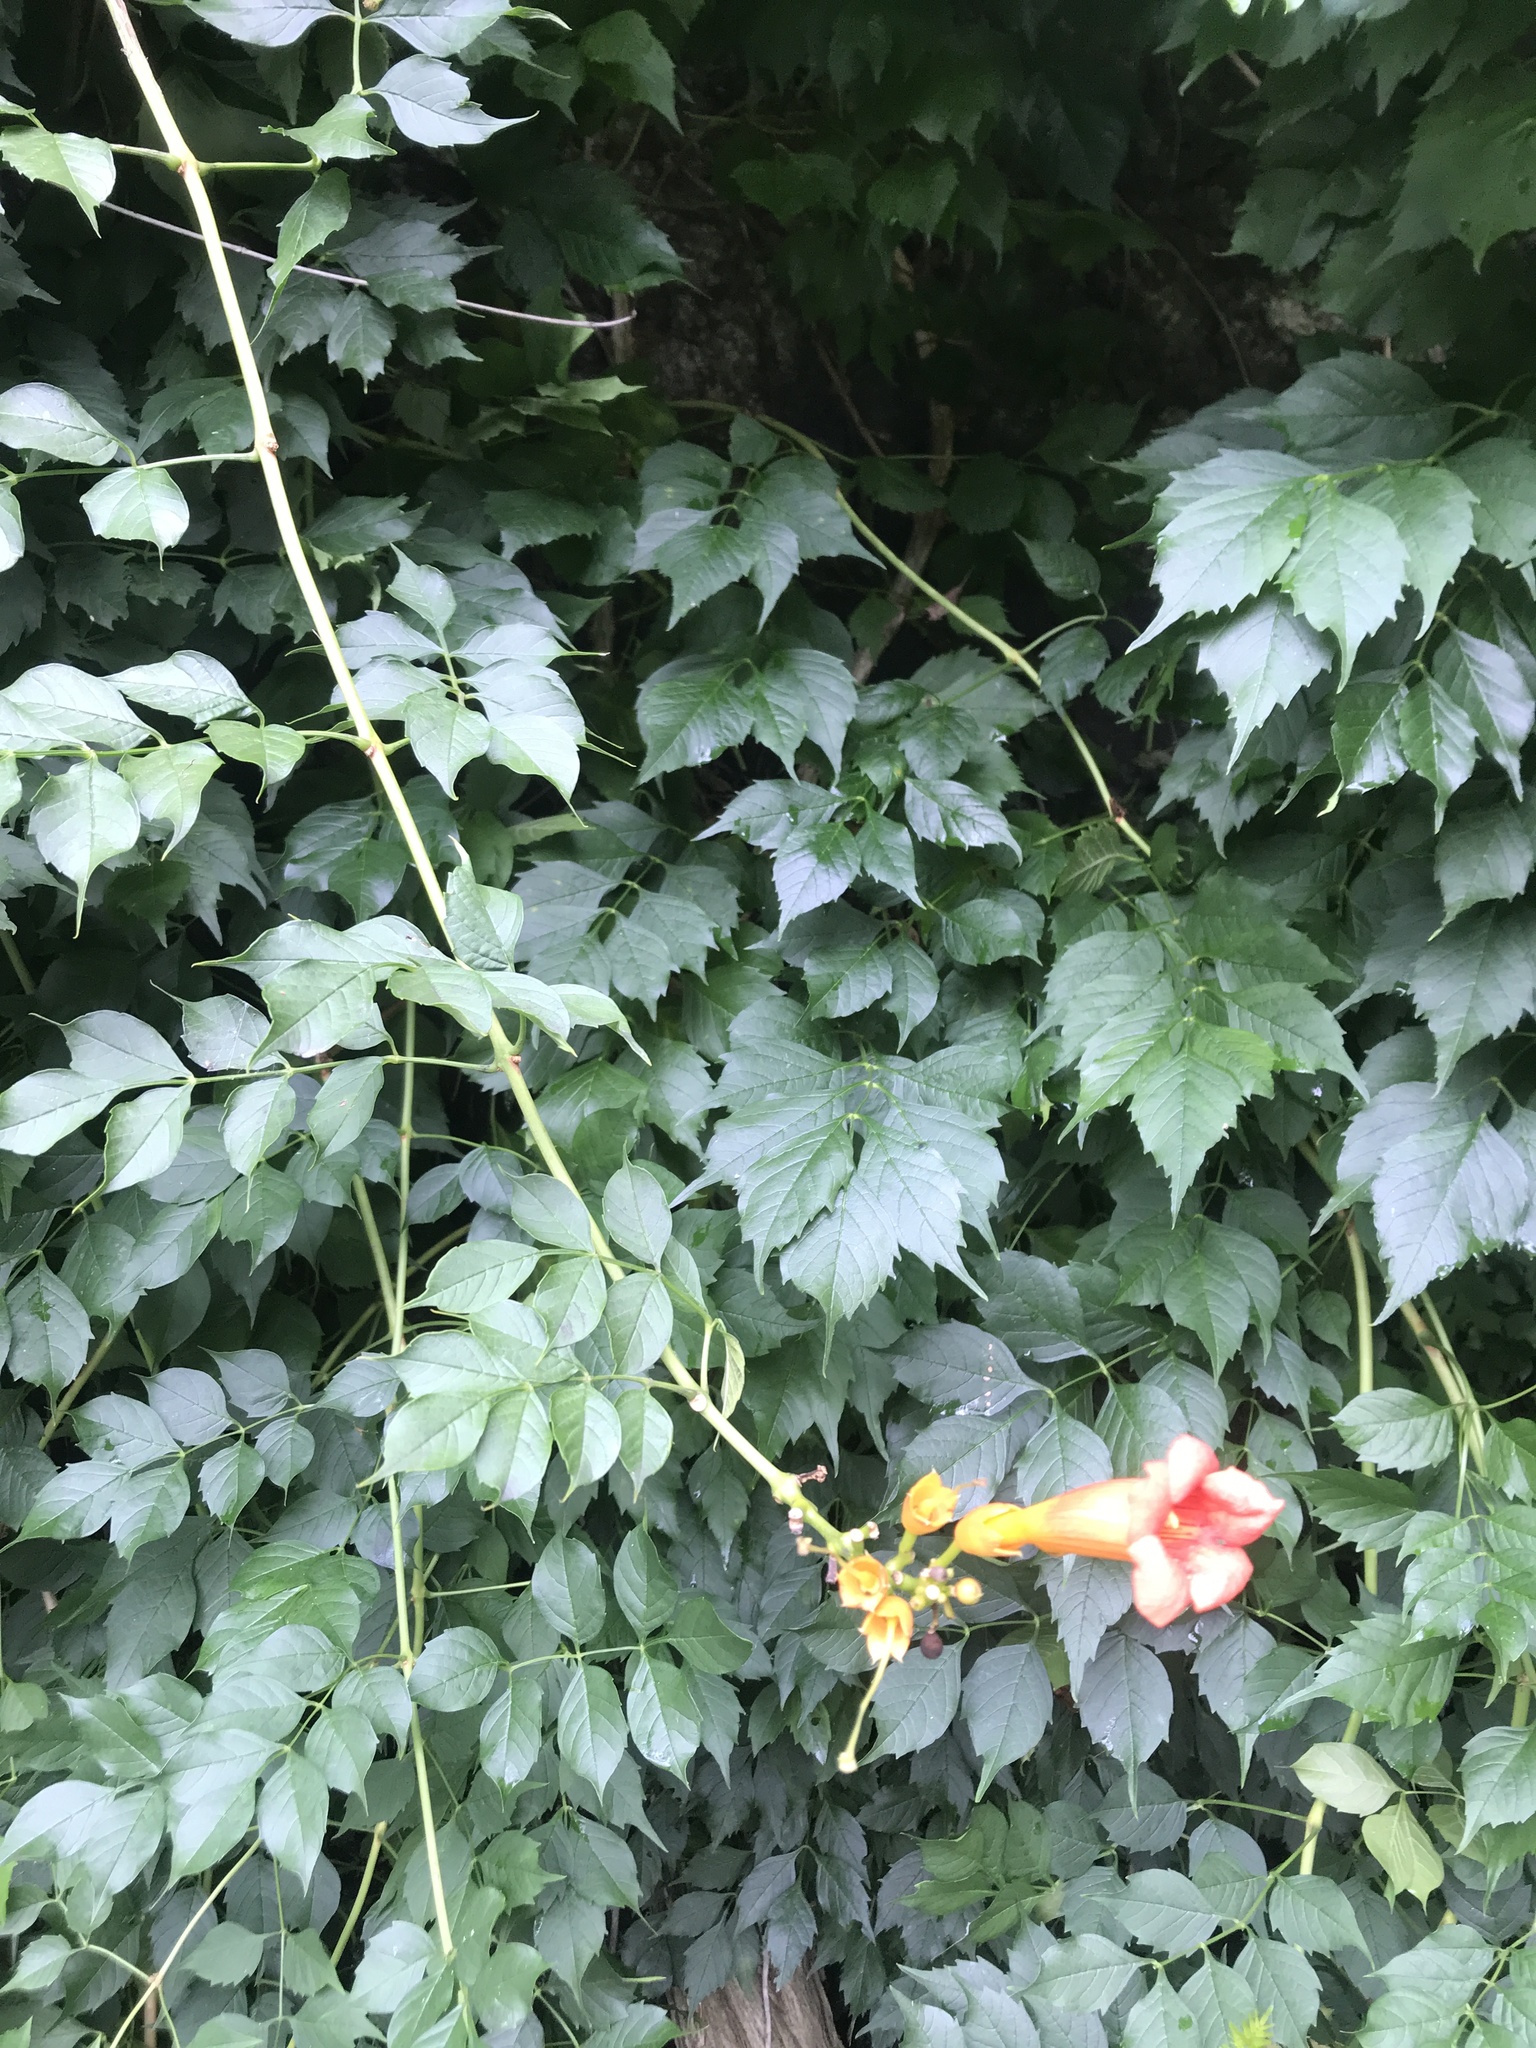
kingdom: Plantae
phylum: Tracheophyta
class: Magnoliopsida
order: Lamiales
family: Bignoniaceae
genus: Campsis
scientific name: Campsis radicans
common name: Trumpet-creeper
